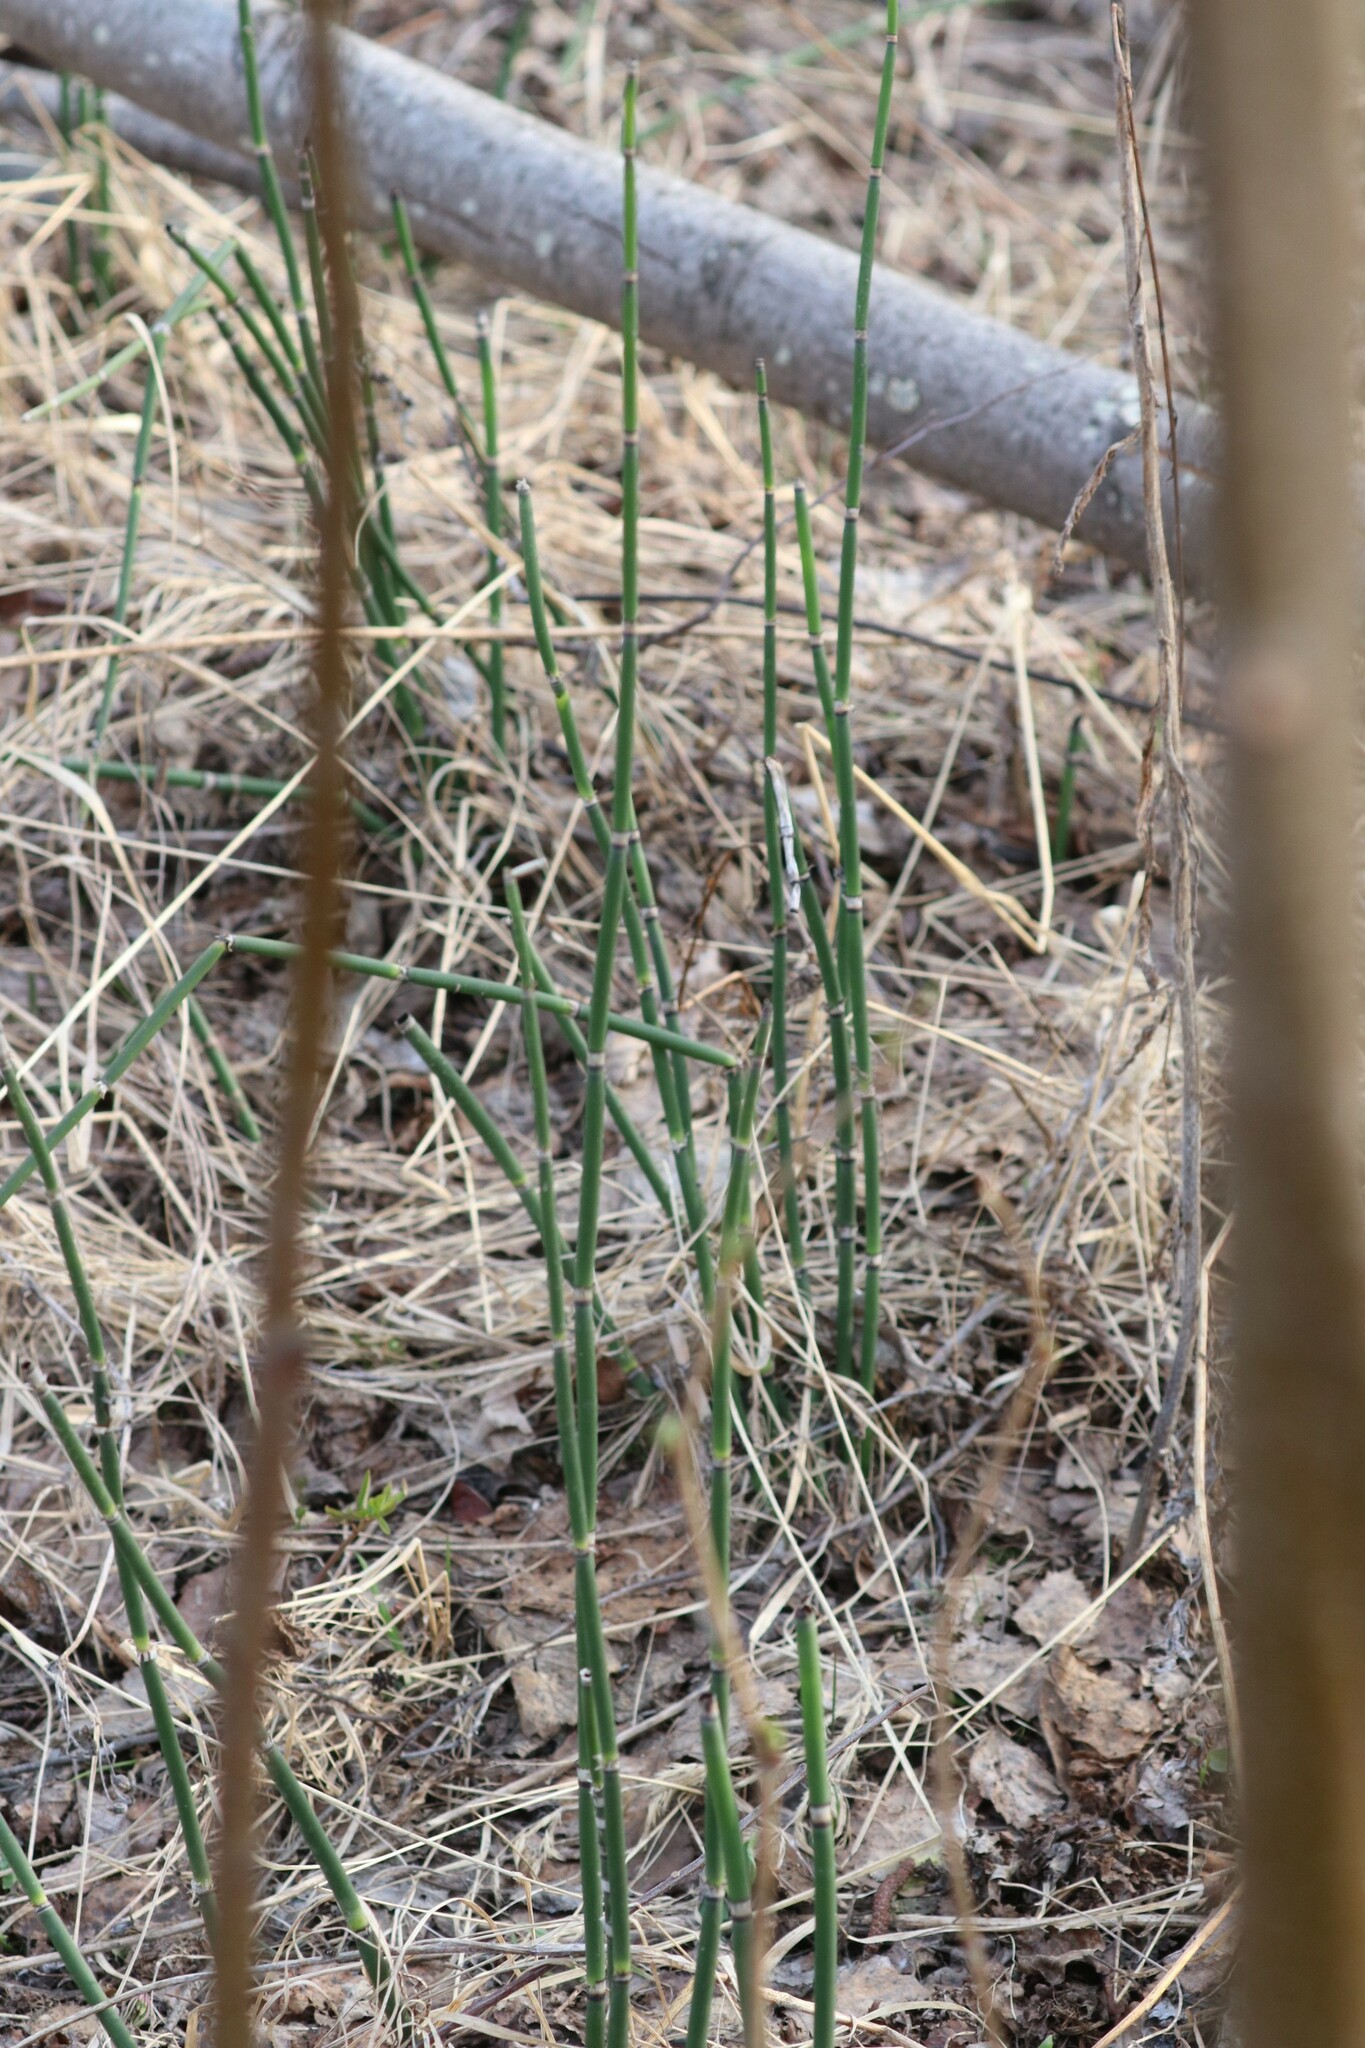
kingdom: Plantae
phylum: Tracheophyta
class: Polypodiopsida
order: Equisetales
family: Equisetaceae
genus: Equisetum
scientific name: Equisetum hyemale
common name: Rough horsetail
